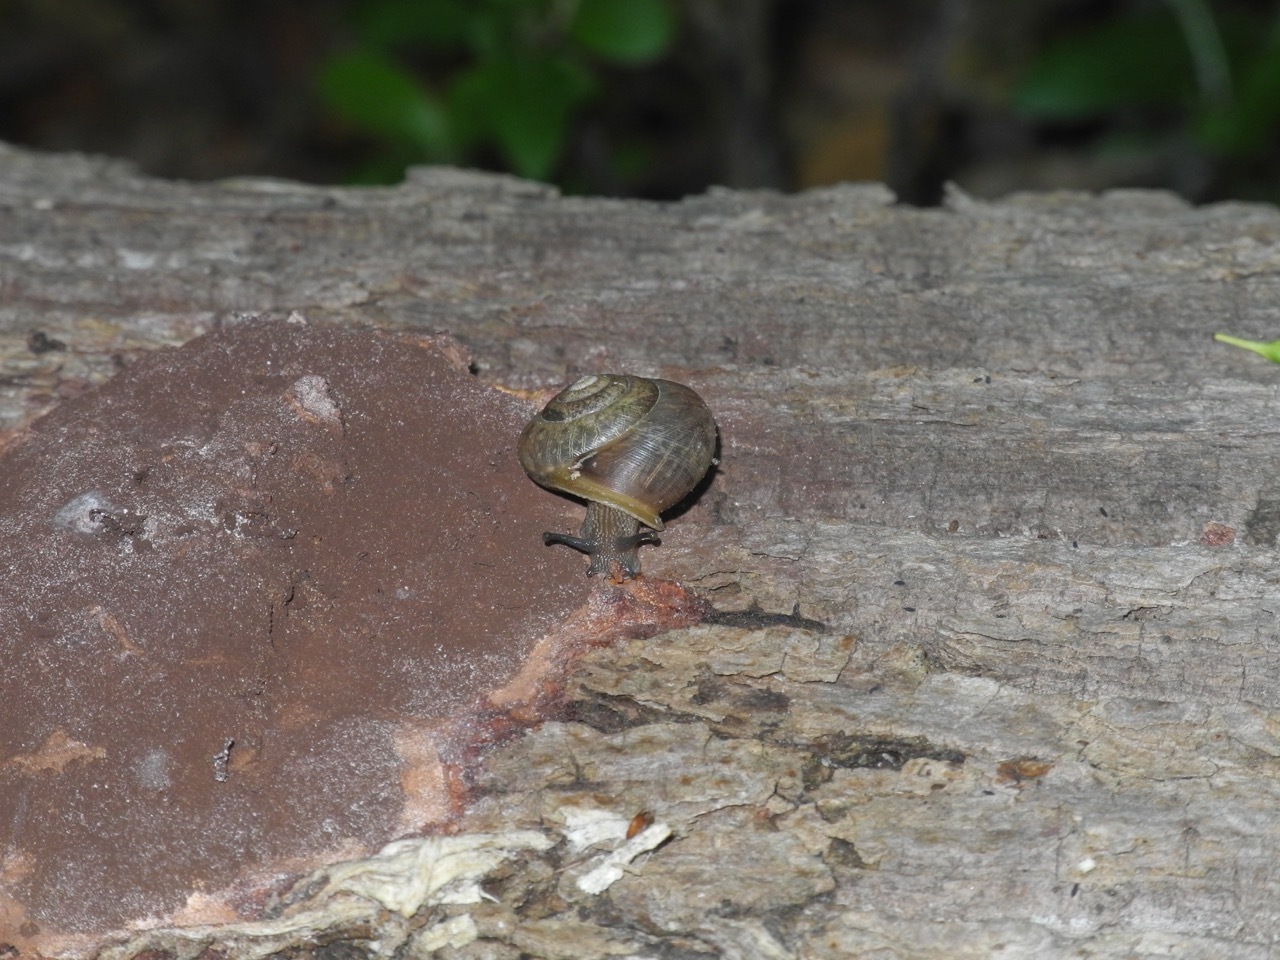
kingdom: Animalia
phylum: Mollusca
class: Gastropoda
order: Stylommatophora
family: Polygyridae
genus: Neohelix
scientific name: Neohelix major
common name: Southeastern whitelip
